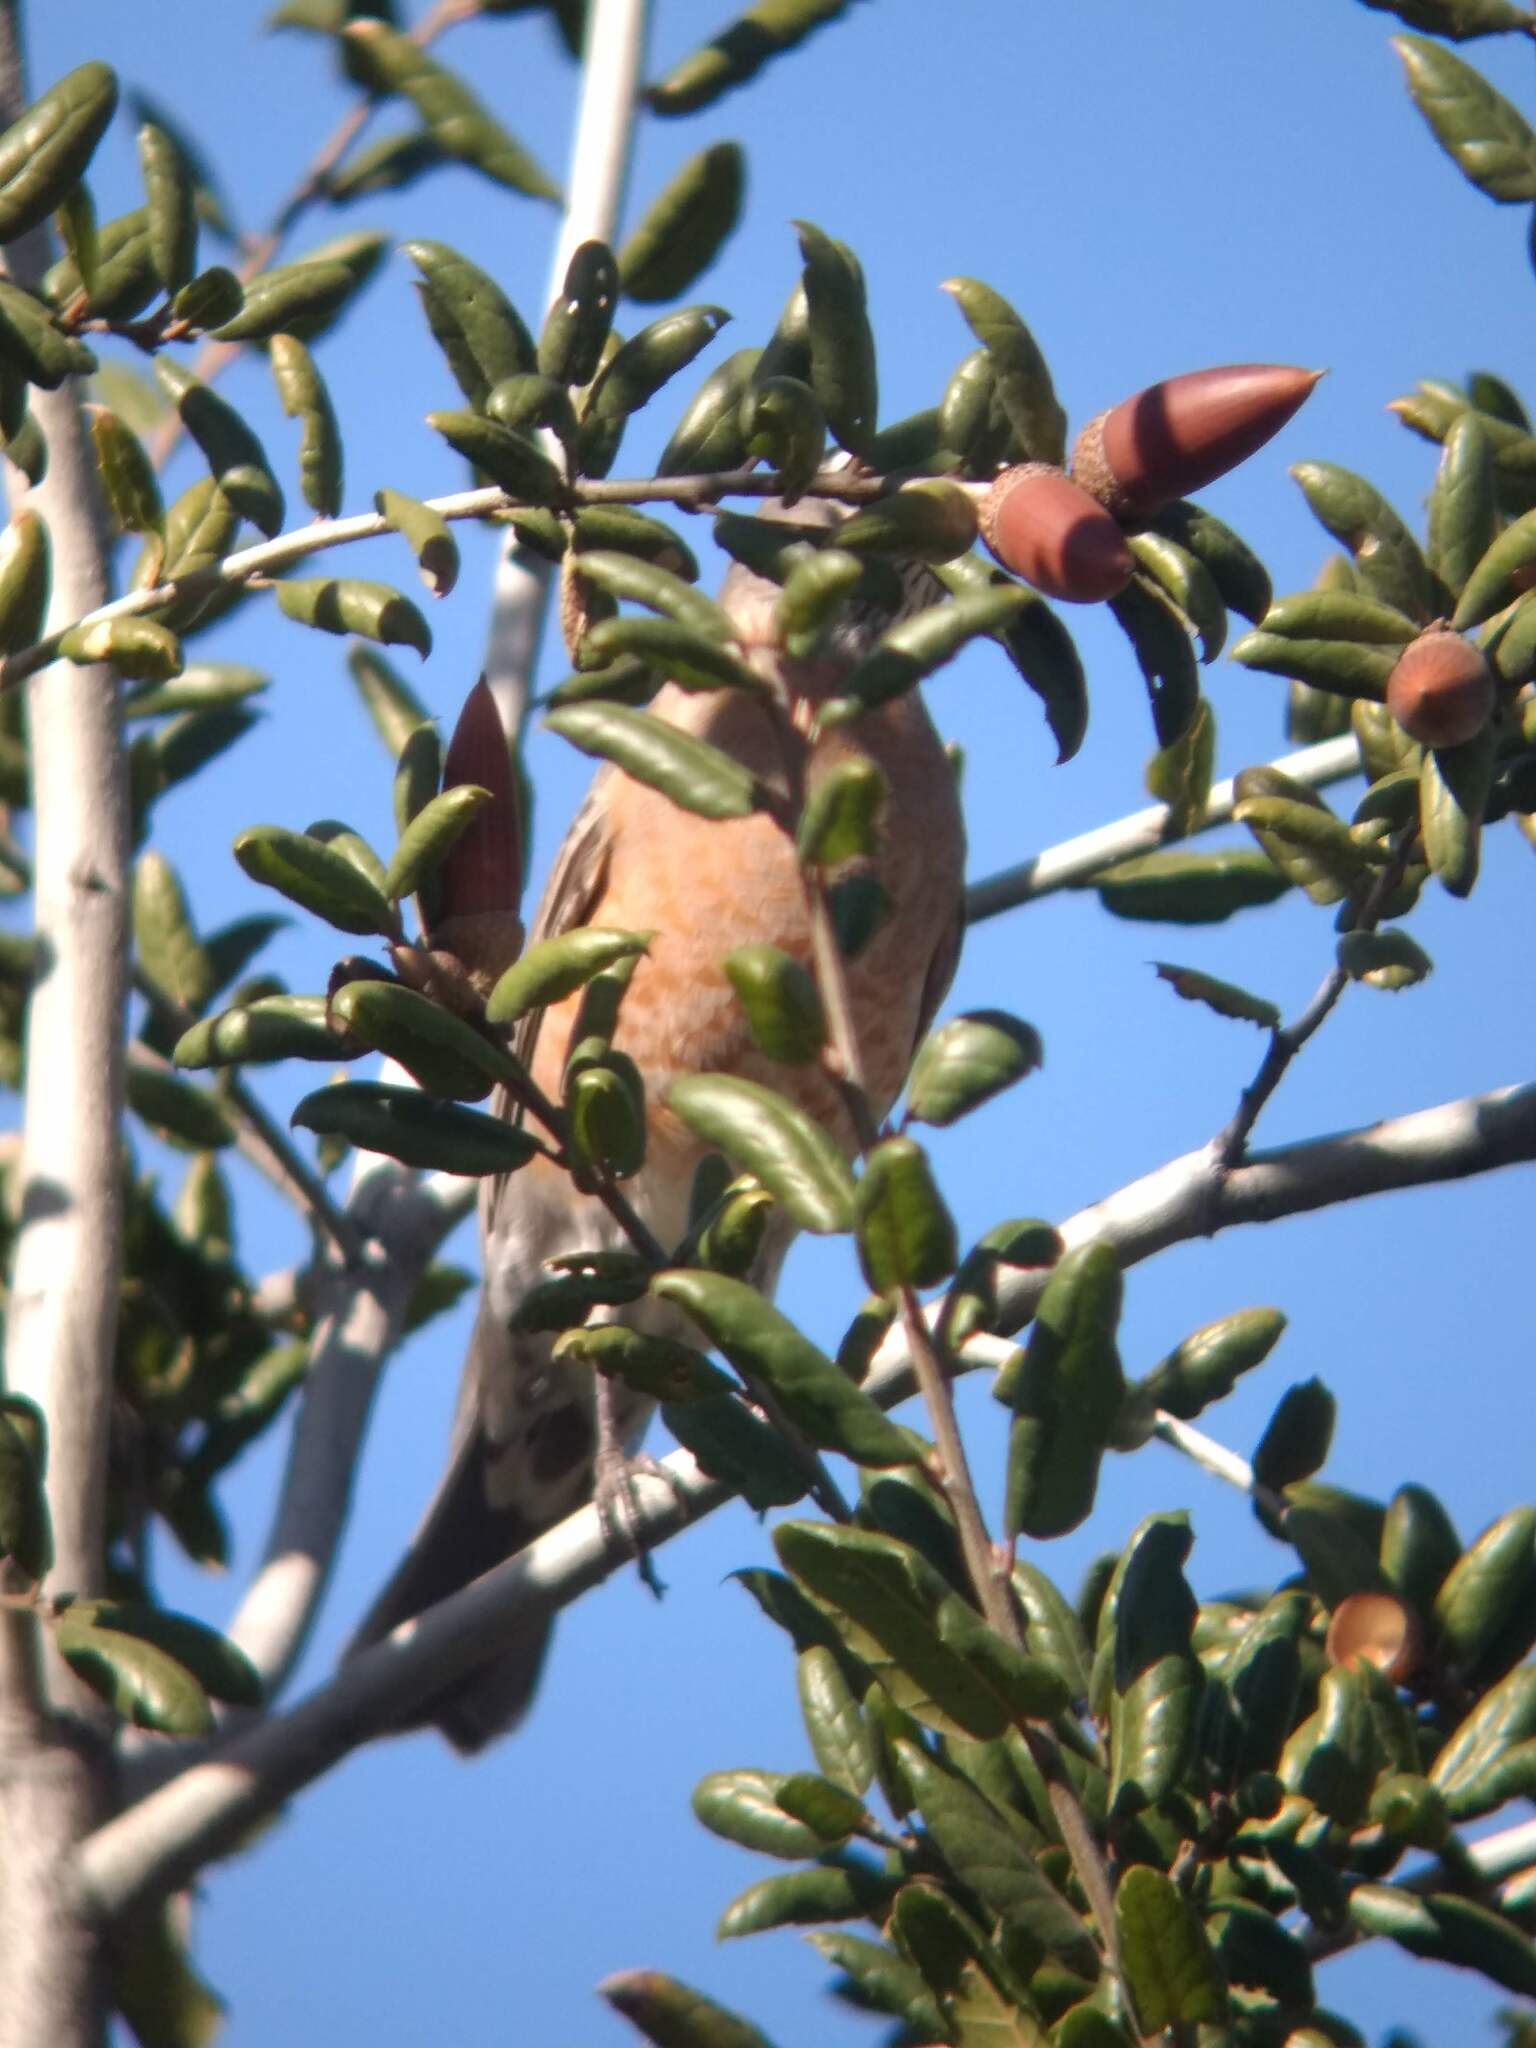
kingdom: Animalia
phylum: Chordata
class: Aves
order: Passeriformes
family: Turdidae
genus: Turdus
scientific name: Turdus migratorius
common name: American robin
